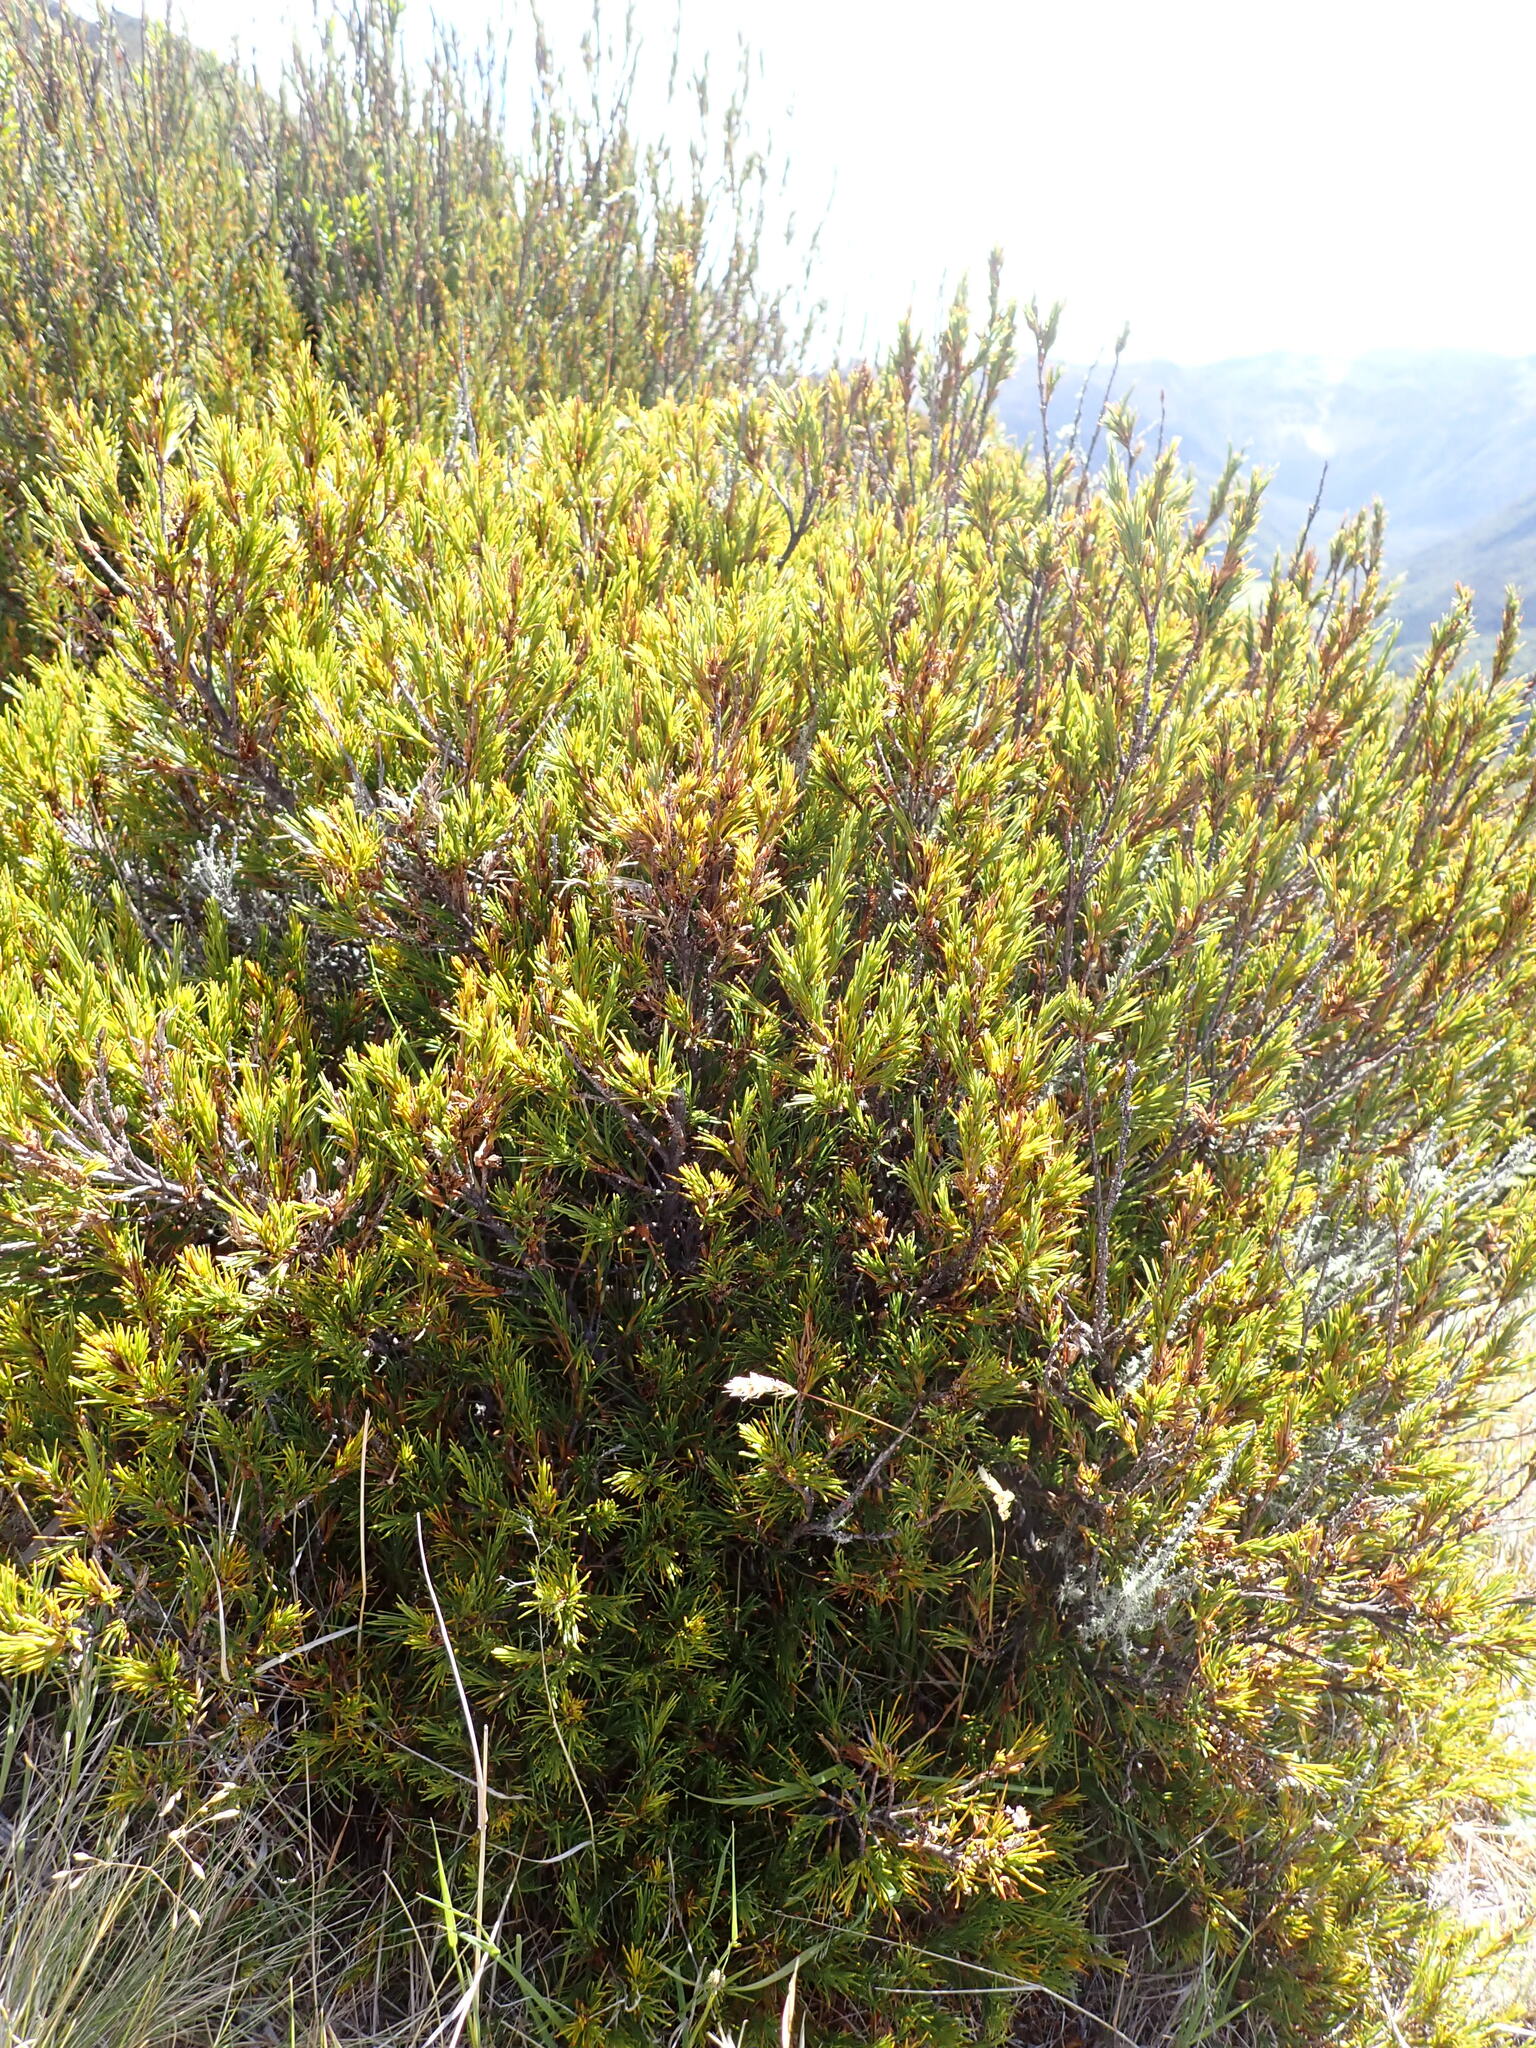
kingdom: Plantae
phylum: Tracheophyta
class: Magnoliopsida
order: Ericales
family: Ericaceae
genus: Dracophyllum
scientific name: Dracophyllum rosmarinifolium
